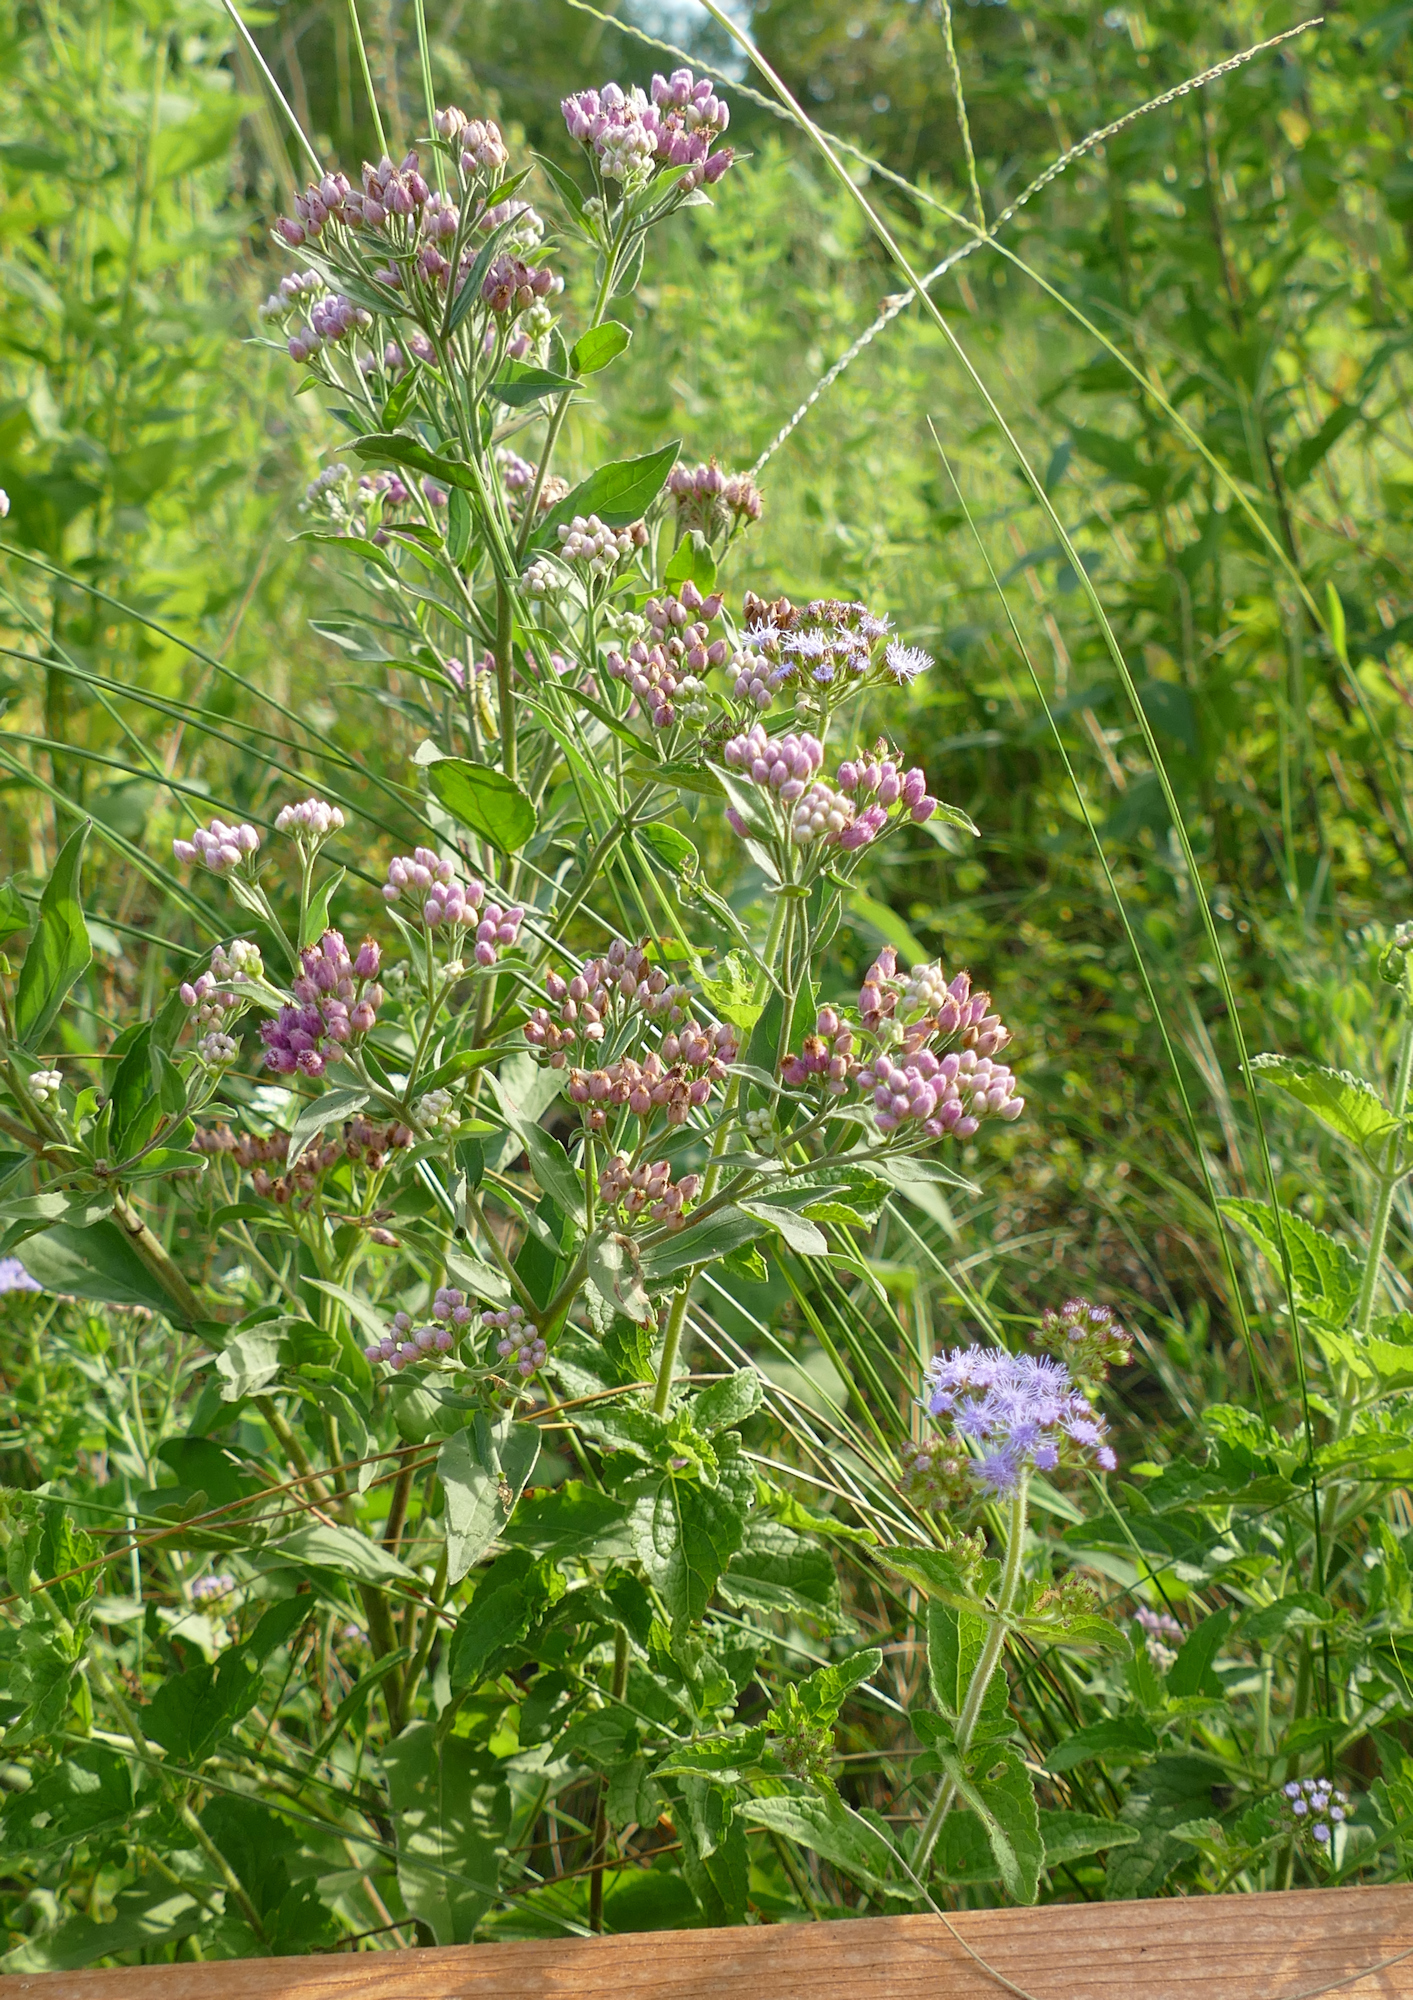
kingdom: Plantae
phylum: Tracheophyta
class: Magnoliopsida
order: Asterales
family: Asteraceae
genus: Pluchea
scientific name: Pluchea odorata
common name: Saltmarsh fleabane
